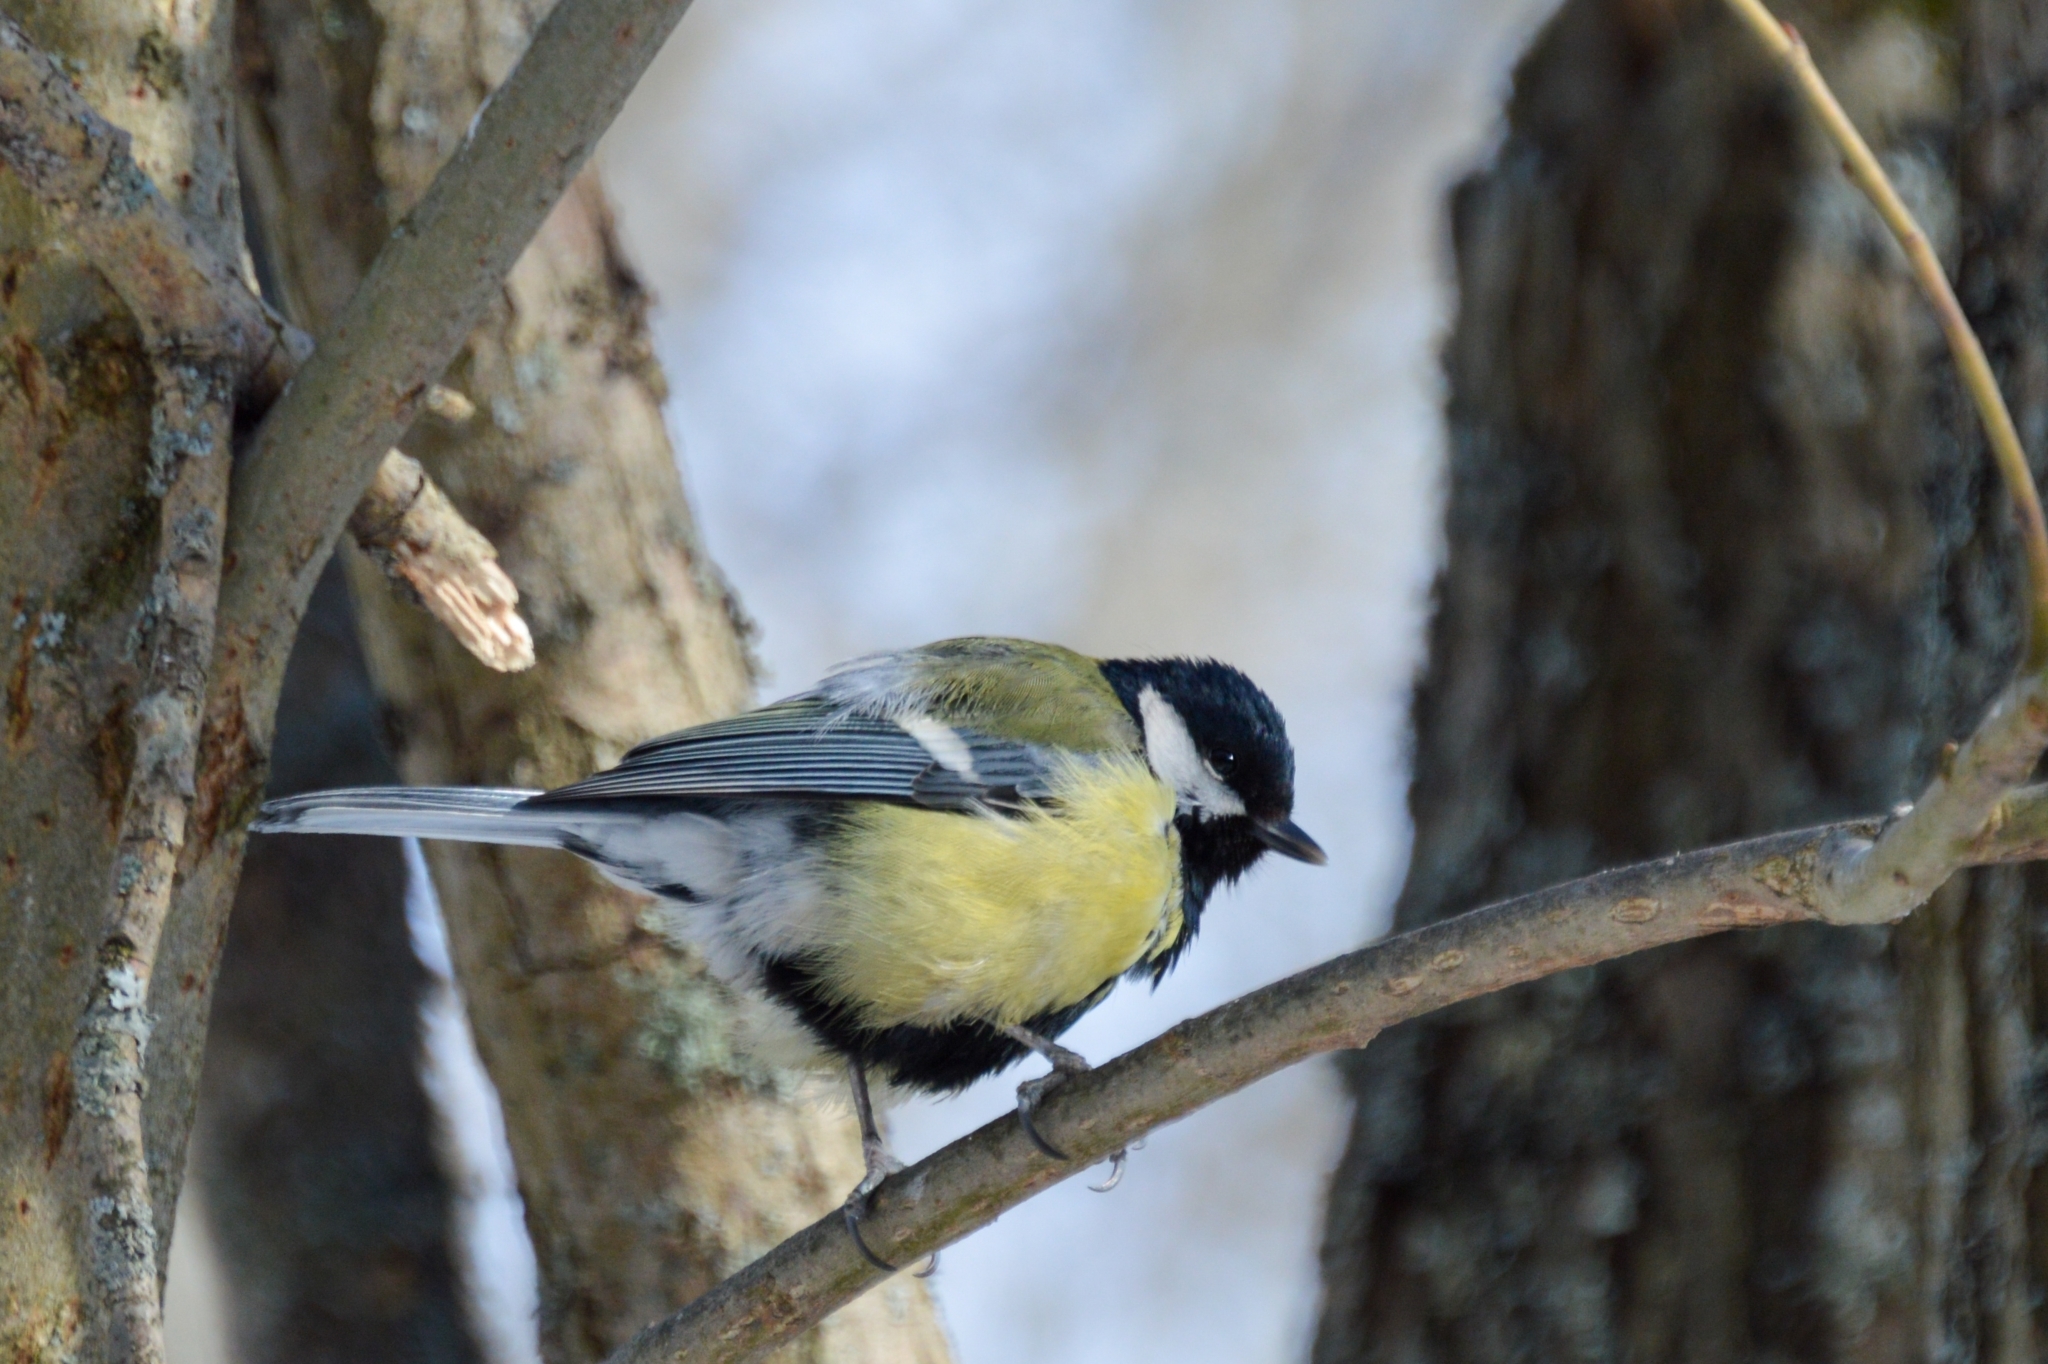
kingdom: Animalia
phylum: Chordata
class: Aves
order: Passeriformes
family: Paridae
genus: Parus
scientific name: Parus major
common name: Great tit
